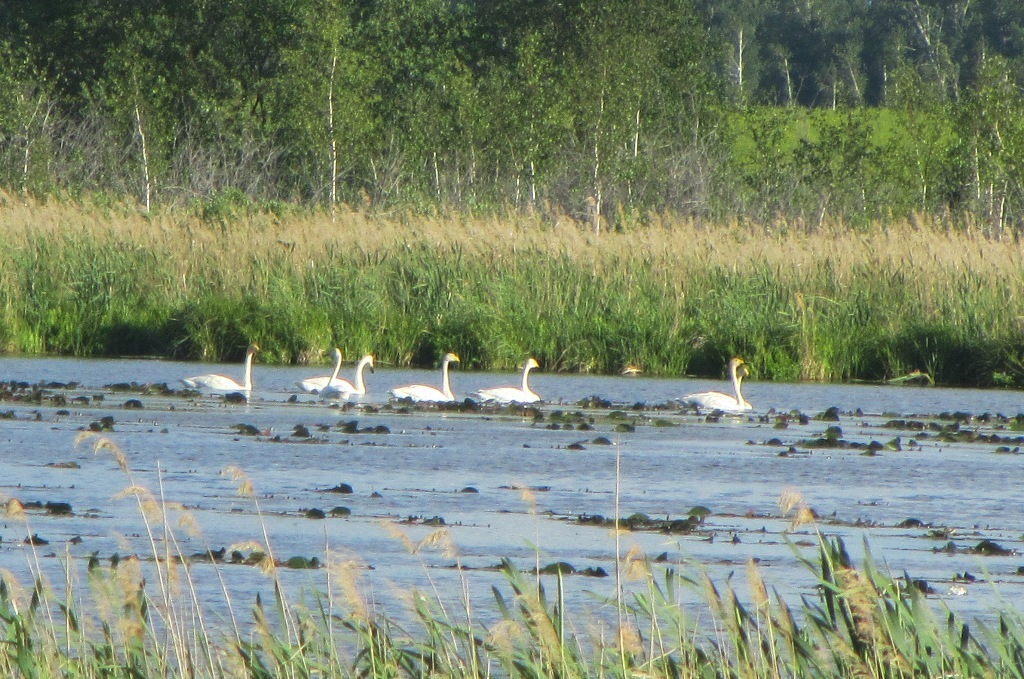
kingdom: Animalia
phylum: Chordata
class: Aves
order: Anseriformes
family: Anatidae
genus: Cygnus
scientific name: Cygnus cygnus
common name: Whooper swan
